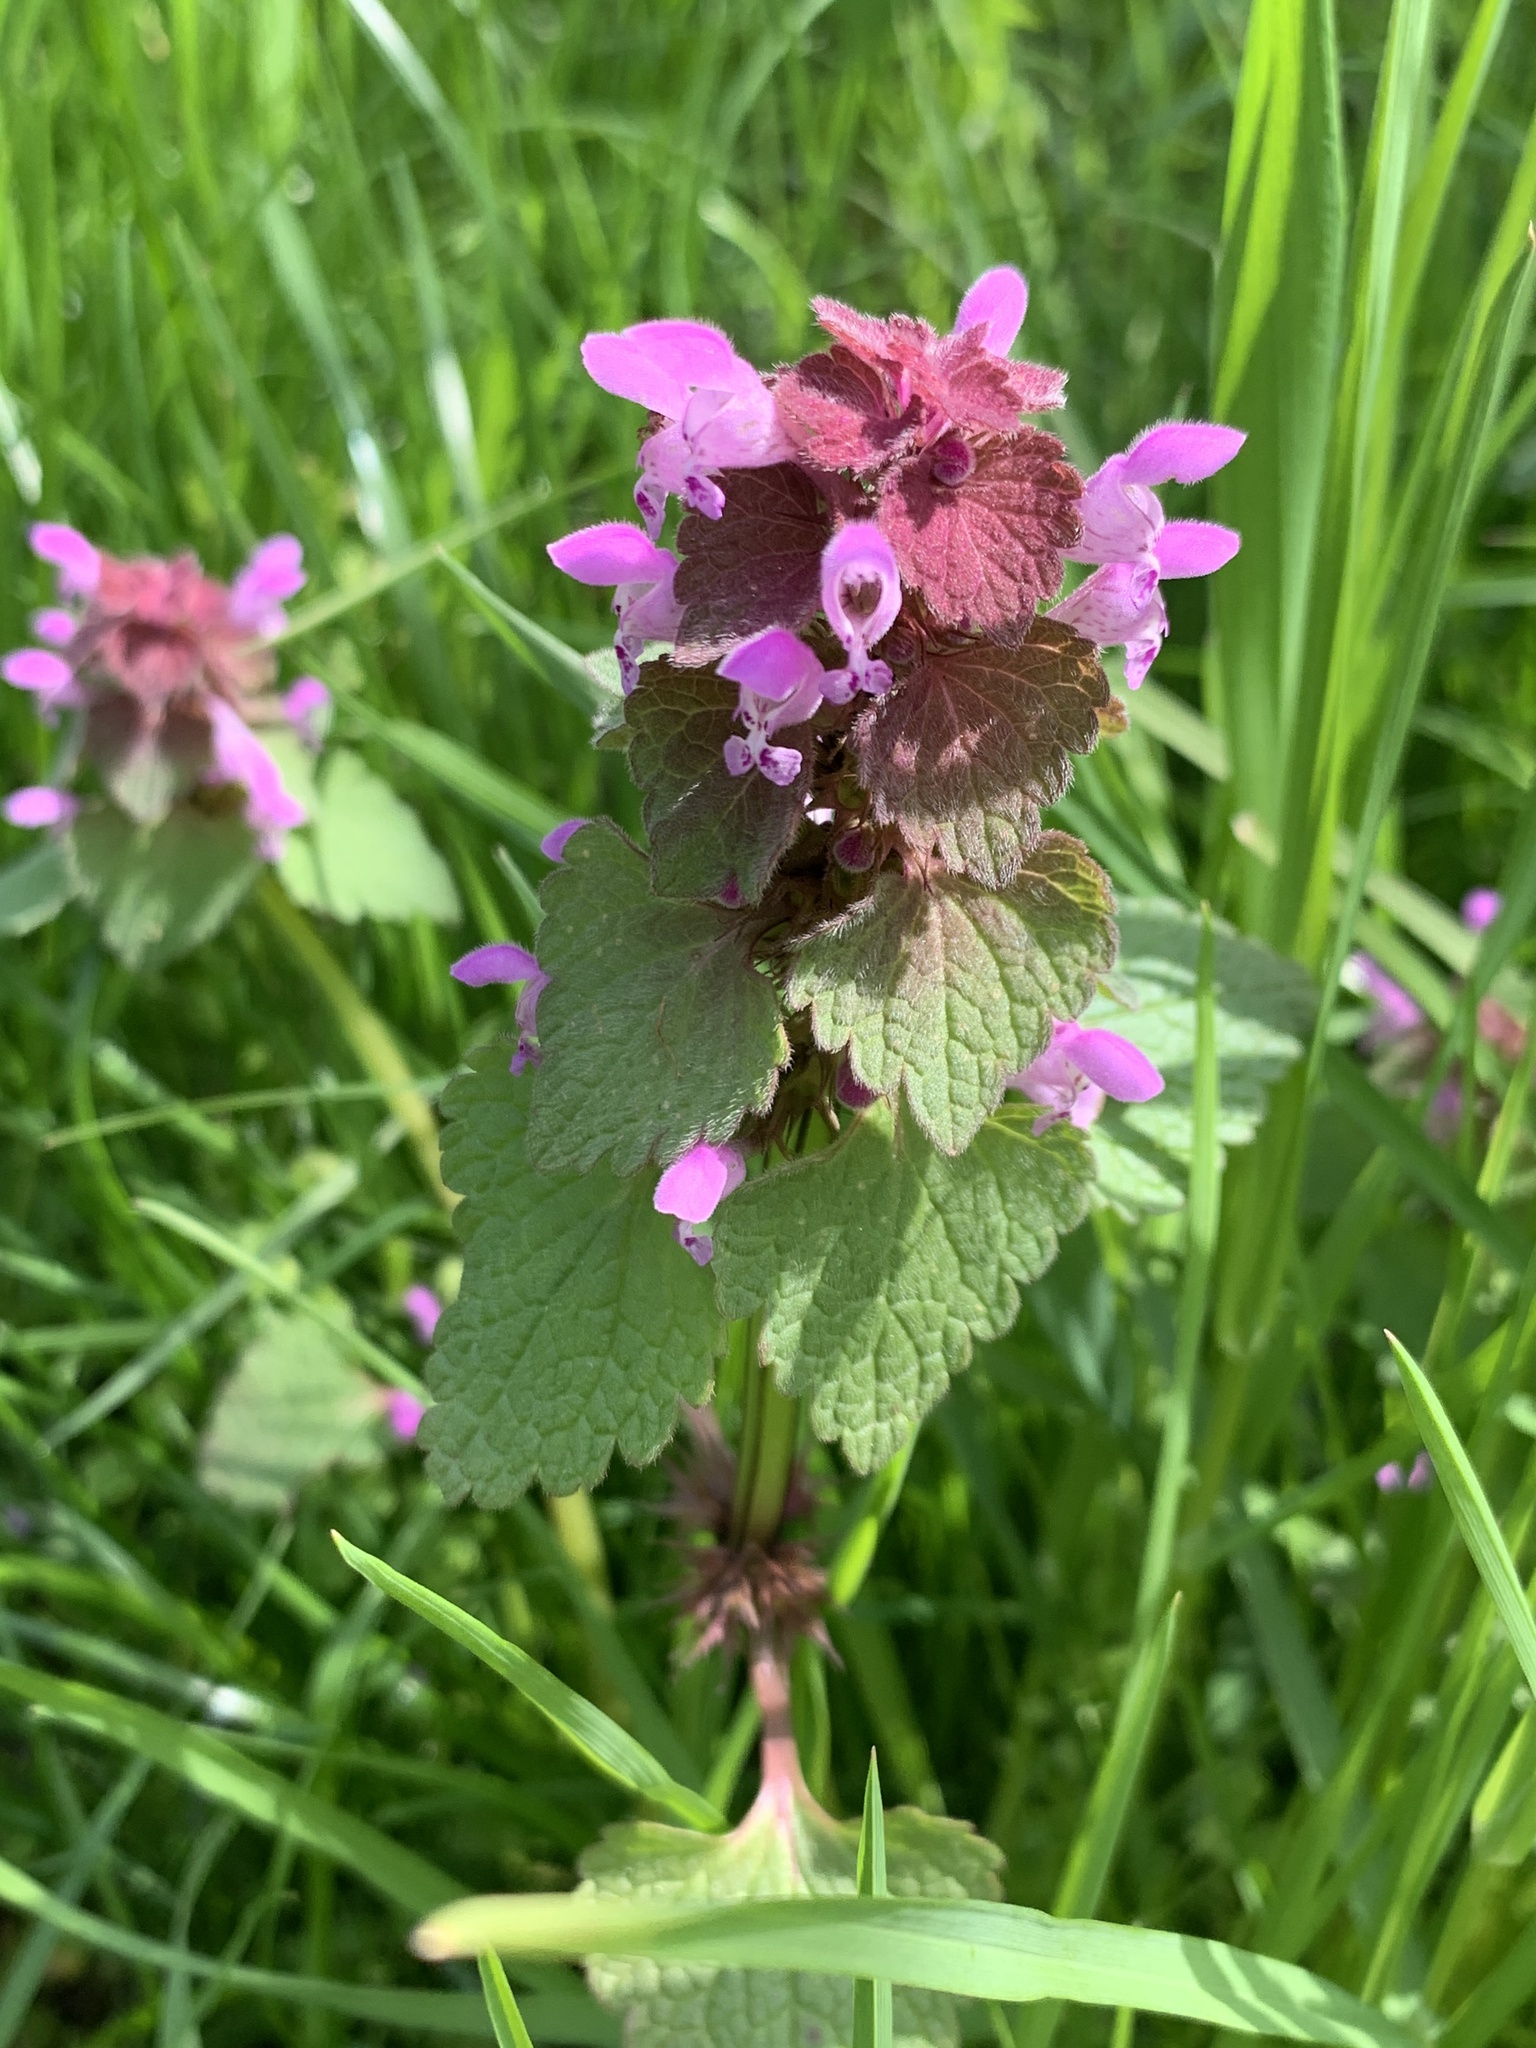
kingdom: Plantae
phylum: Tracheophyta
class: Magnoliopsida
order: Lamiales
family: Lamiaceae
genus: Lamium
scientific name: Lamium purpureum
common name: Red dead-nettle
